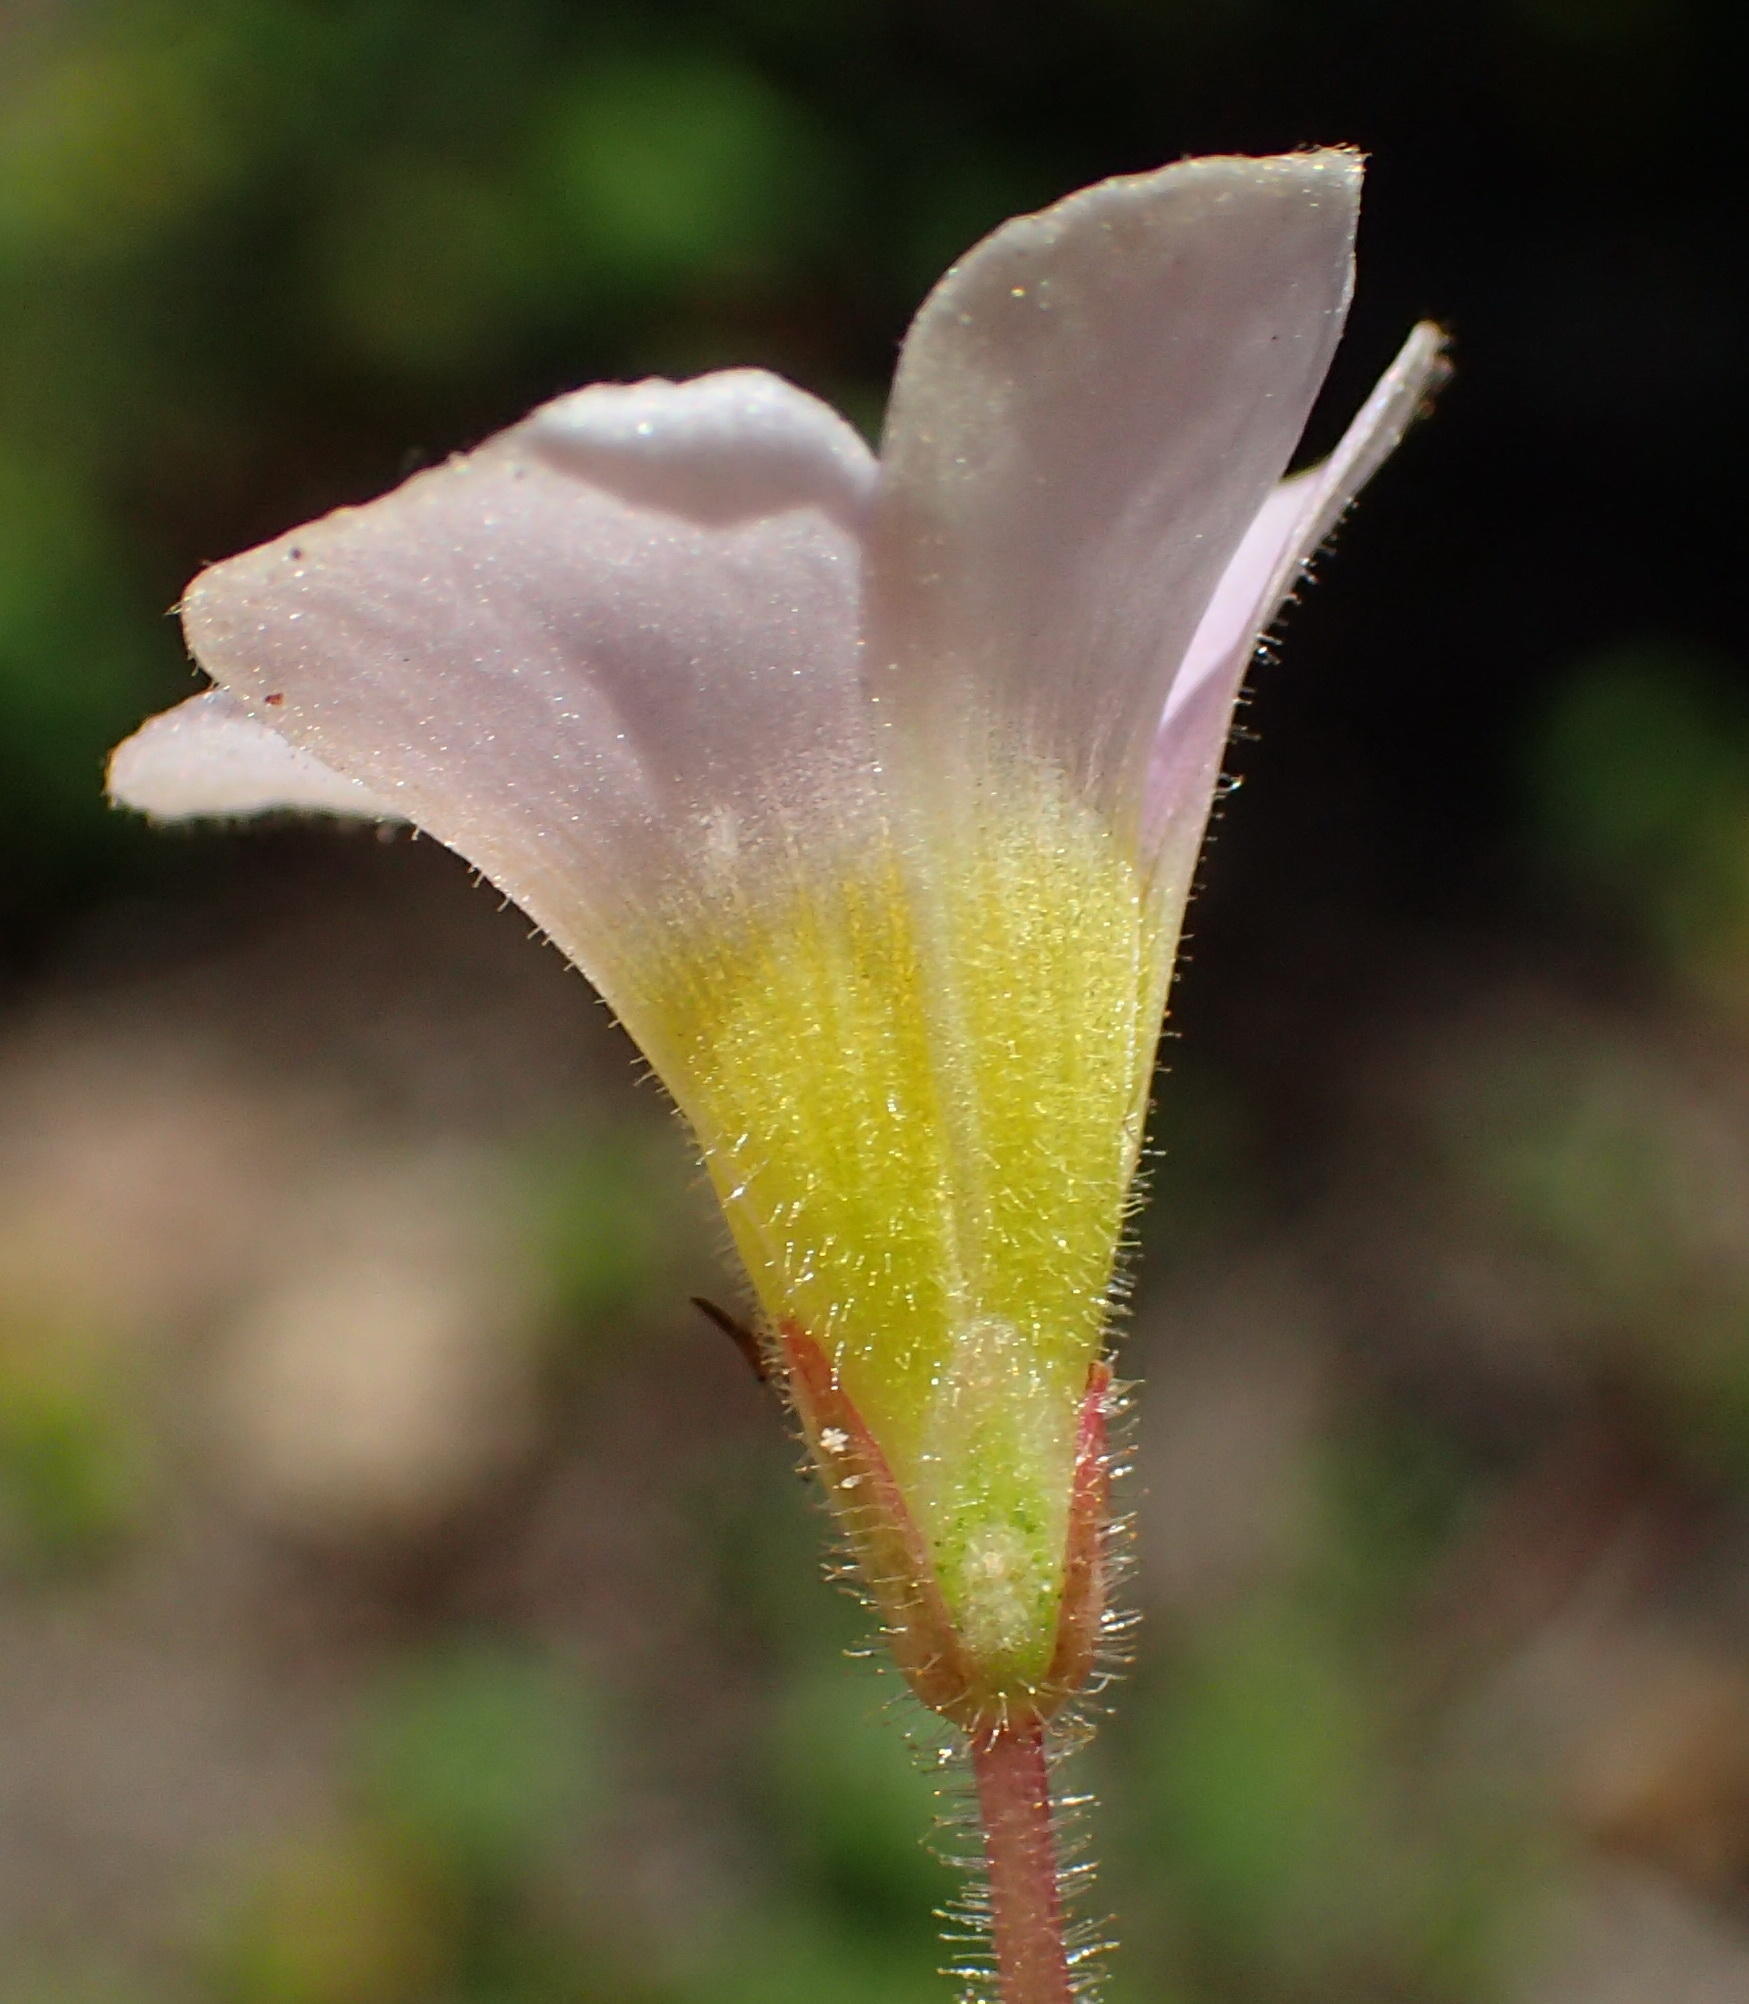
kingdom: Plantae
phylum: Tracheophyta
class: Magnoliopsida
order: Oxalidales
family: Oxalidaceae
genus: Oxalis
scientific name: Oxalis punctata
